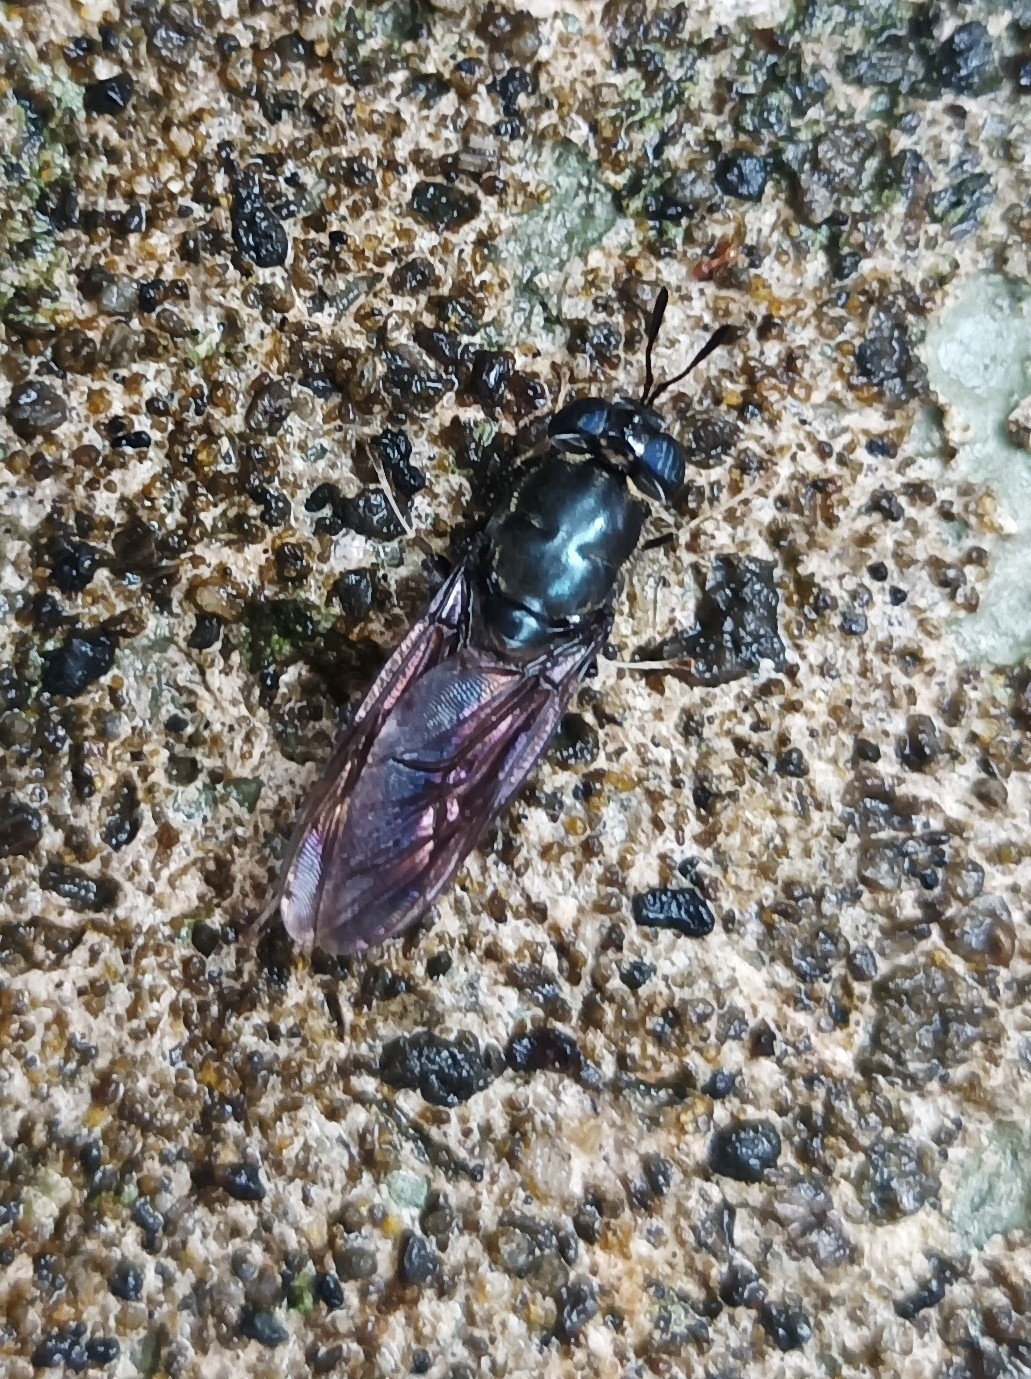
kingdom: Animalia
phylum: Arthropoda
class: Insecta
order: Diptera
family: Stratiomyidae
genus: Hermetia
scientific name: Hermetia illucens
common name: Black soldier fly
